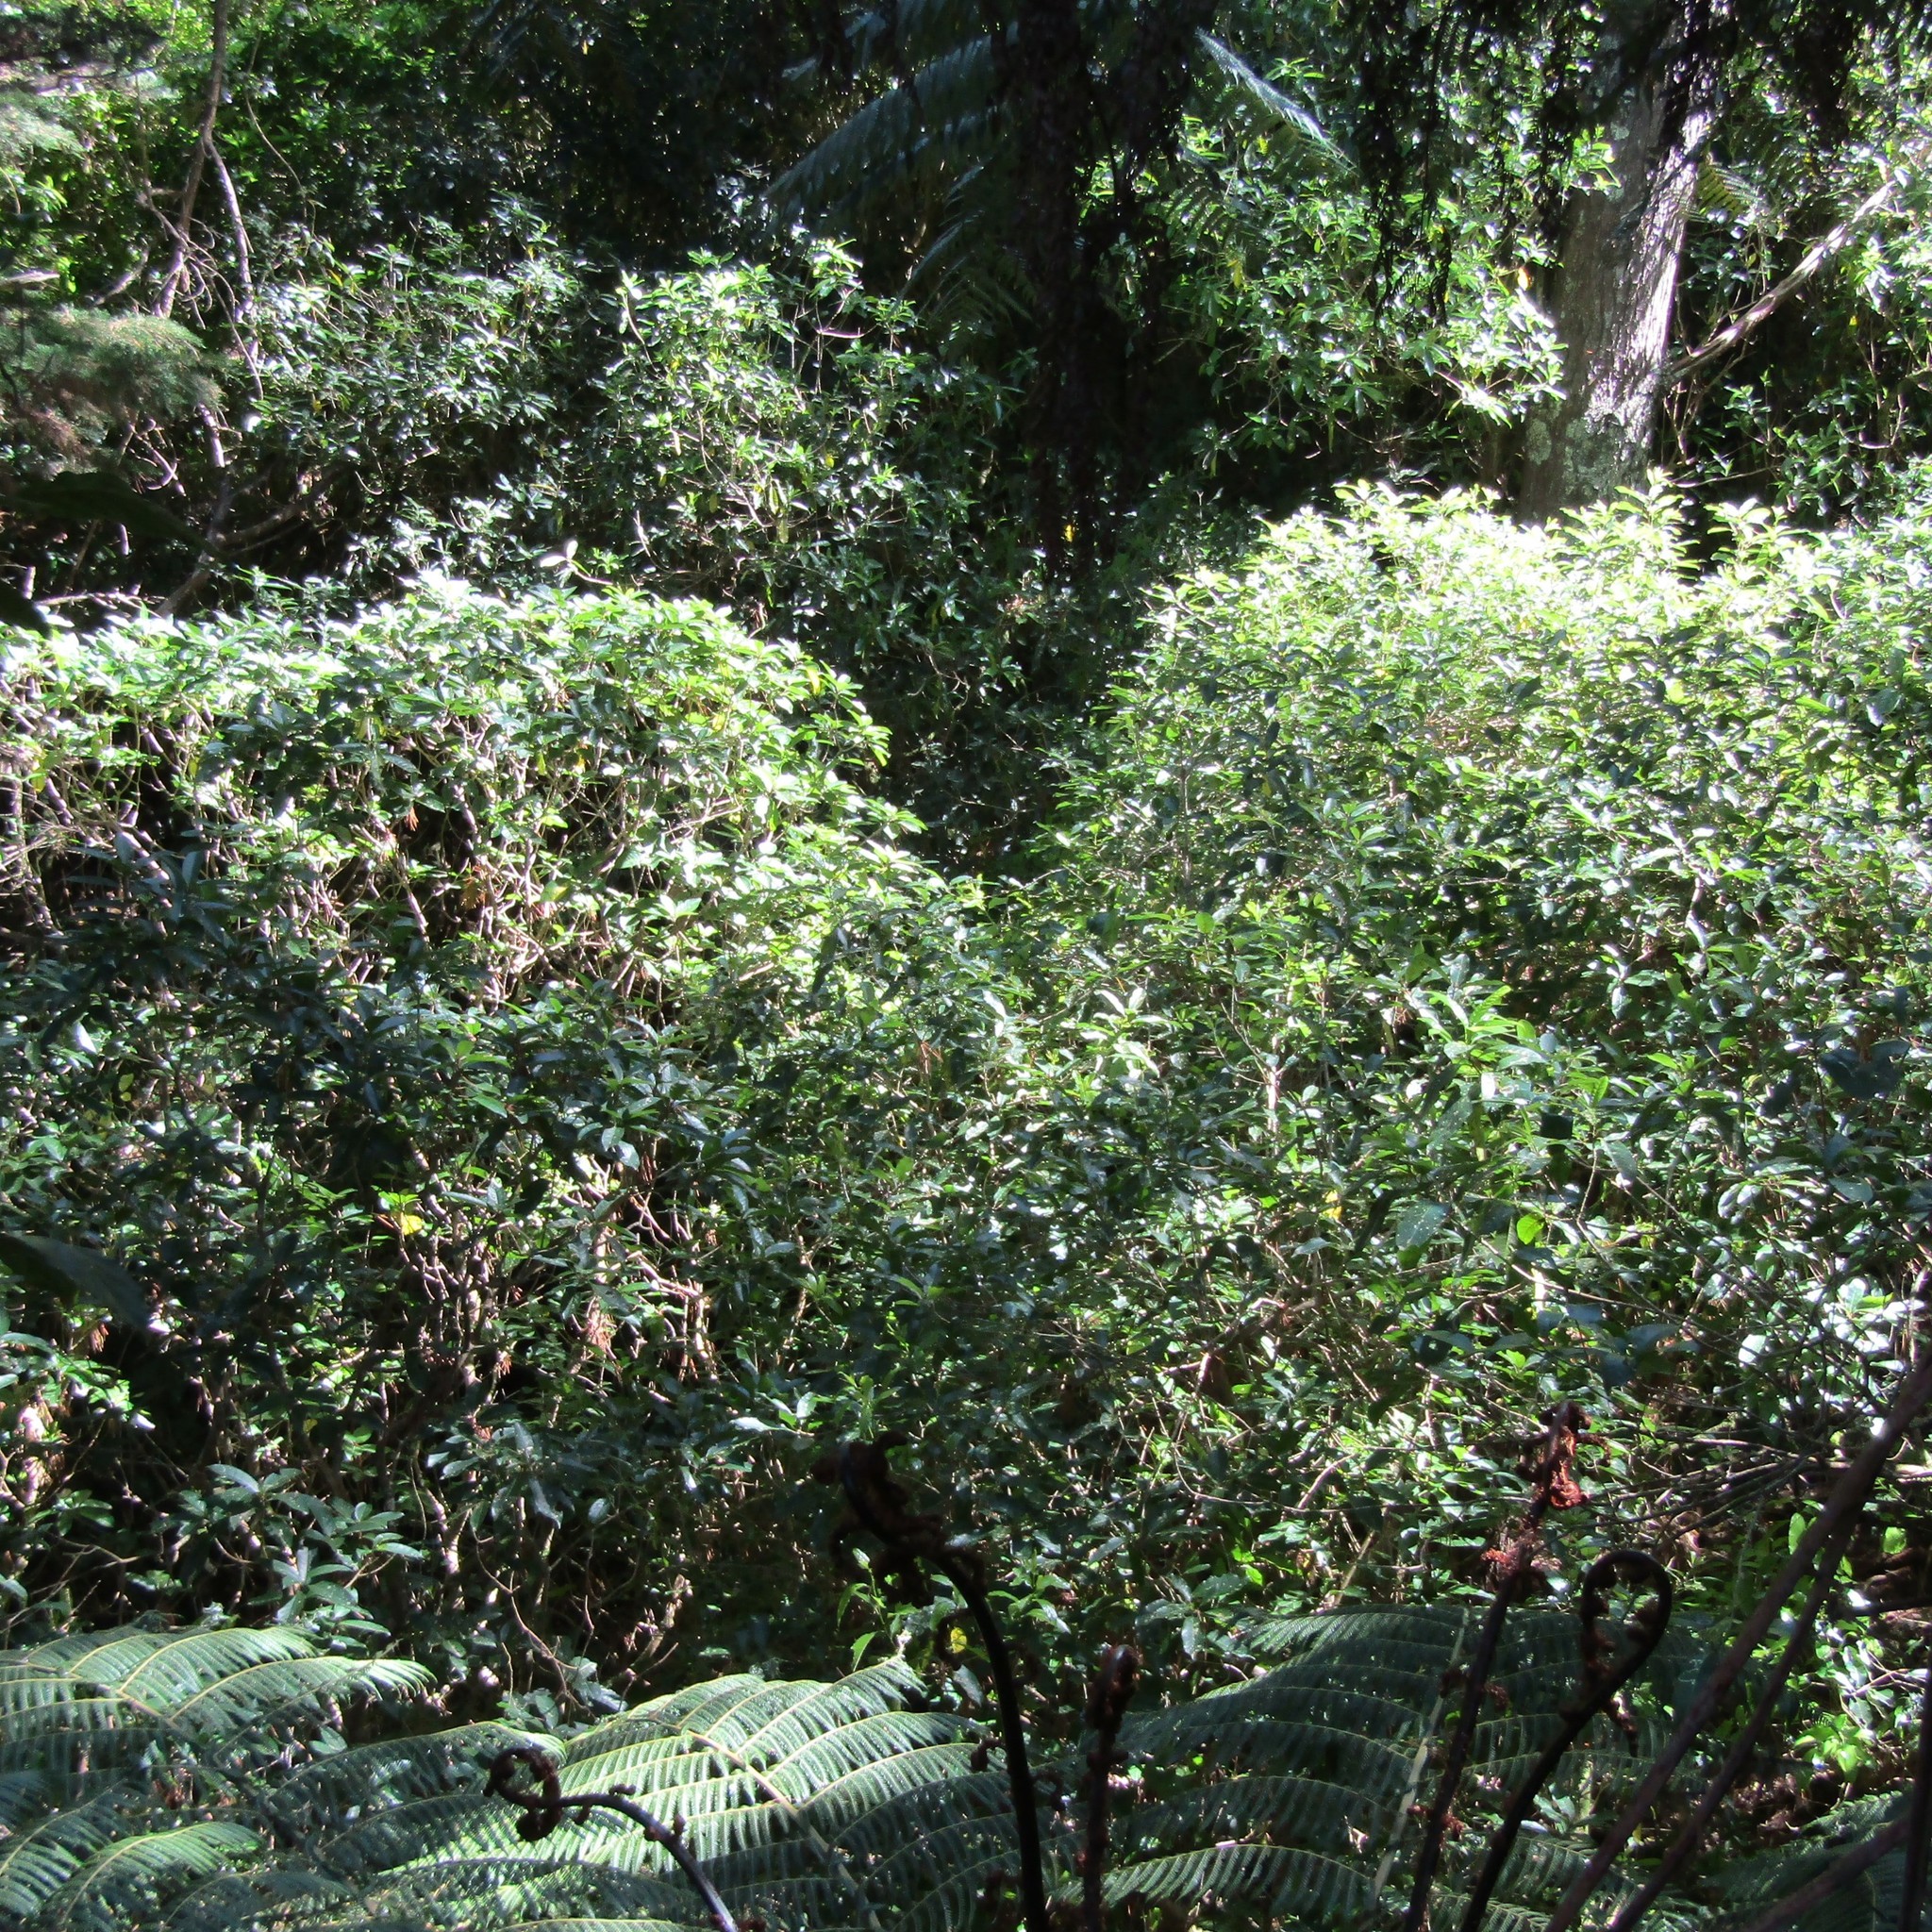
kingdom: Plantae
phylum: Tracheophyta
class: Magnoliopsida
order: Malpighiales
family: Violaceae
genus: Melicytus
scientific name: Melicytus ramiflorus
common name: Mahoe
